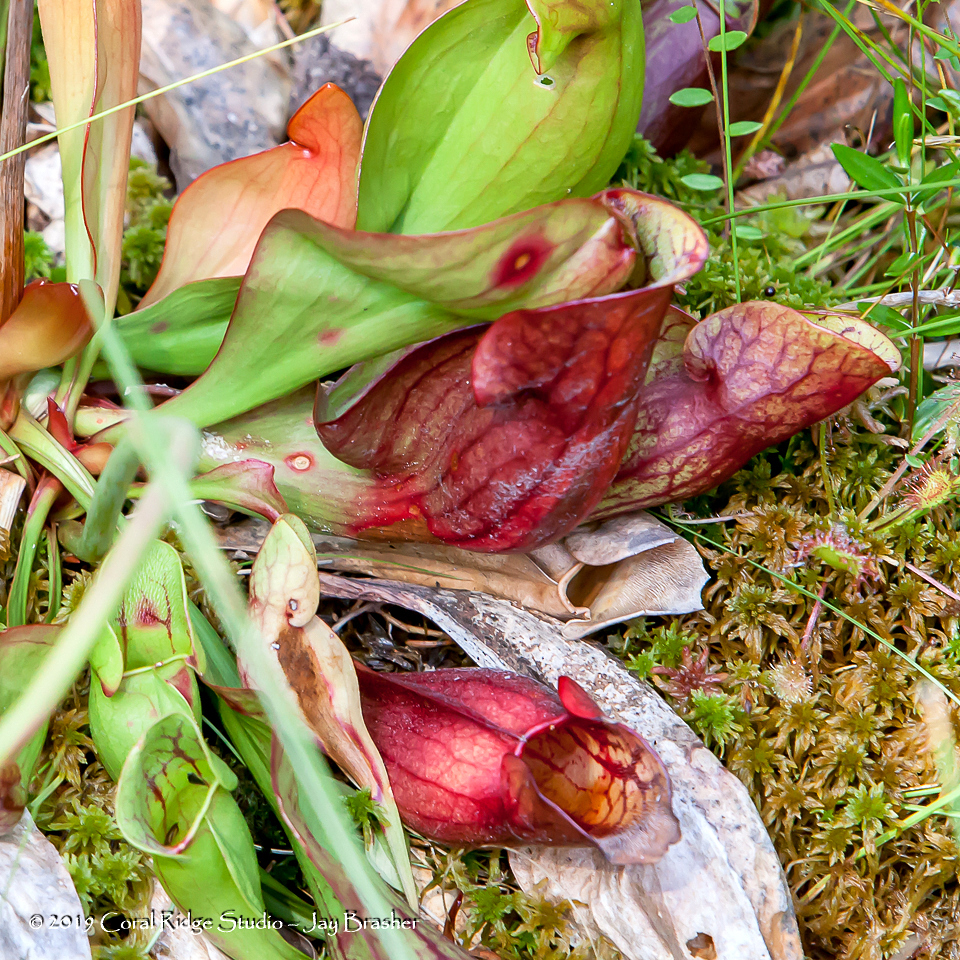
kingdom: Plantae
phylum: Tracheophyta
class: Magnoliopsida
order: Ericales
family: Sarraceniaceae
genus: Sarracenia
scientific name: Sarracenia purpurea
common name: Pitcherplant
